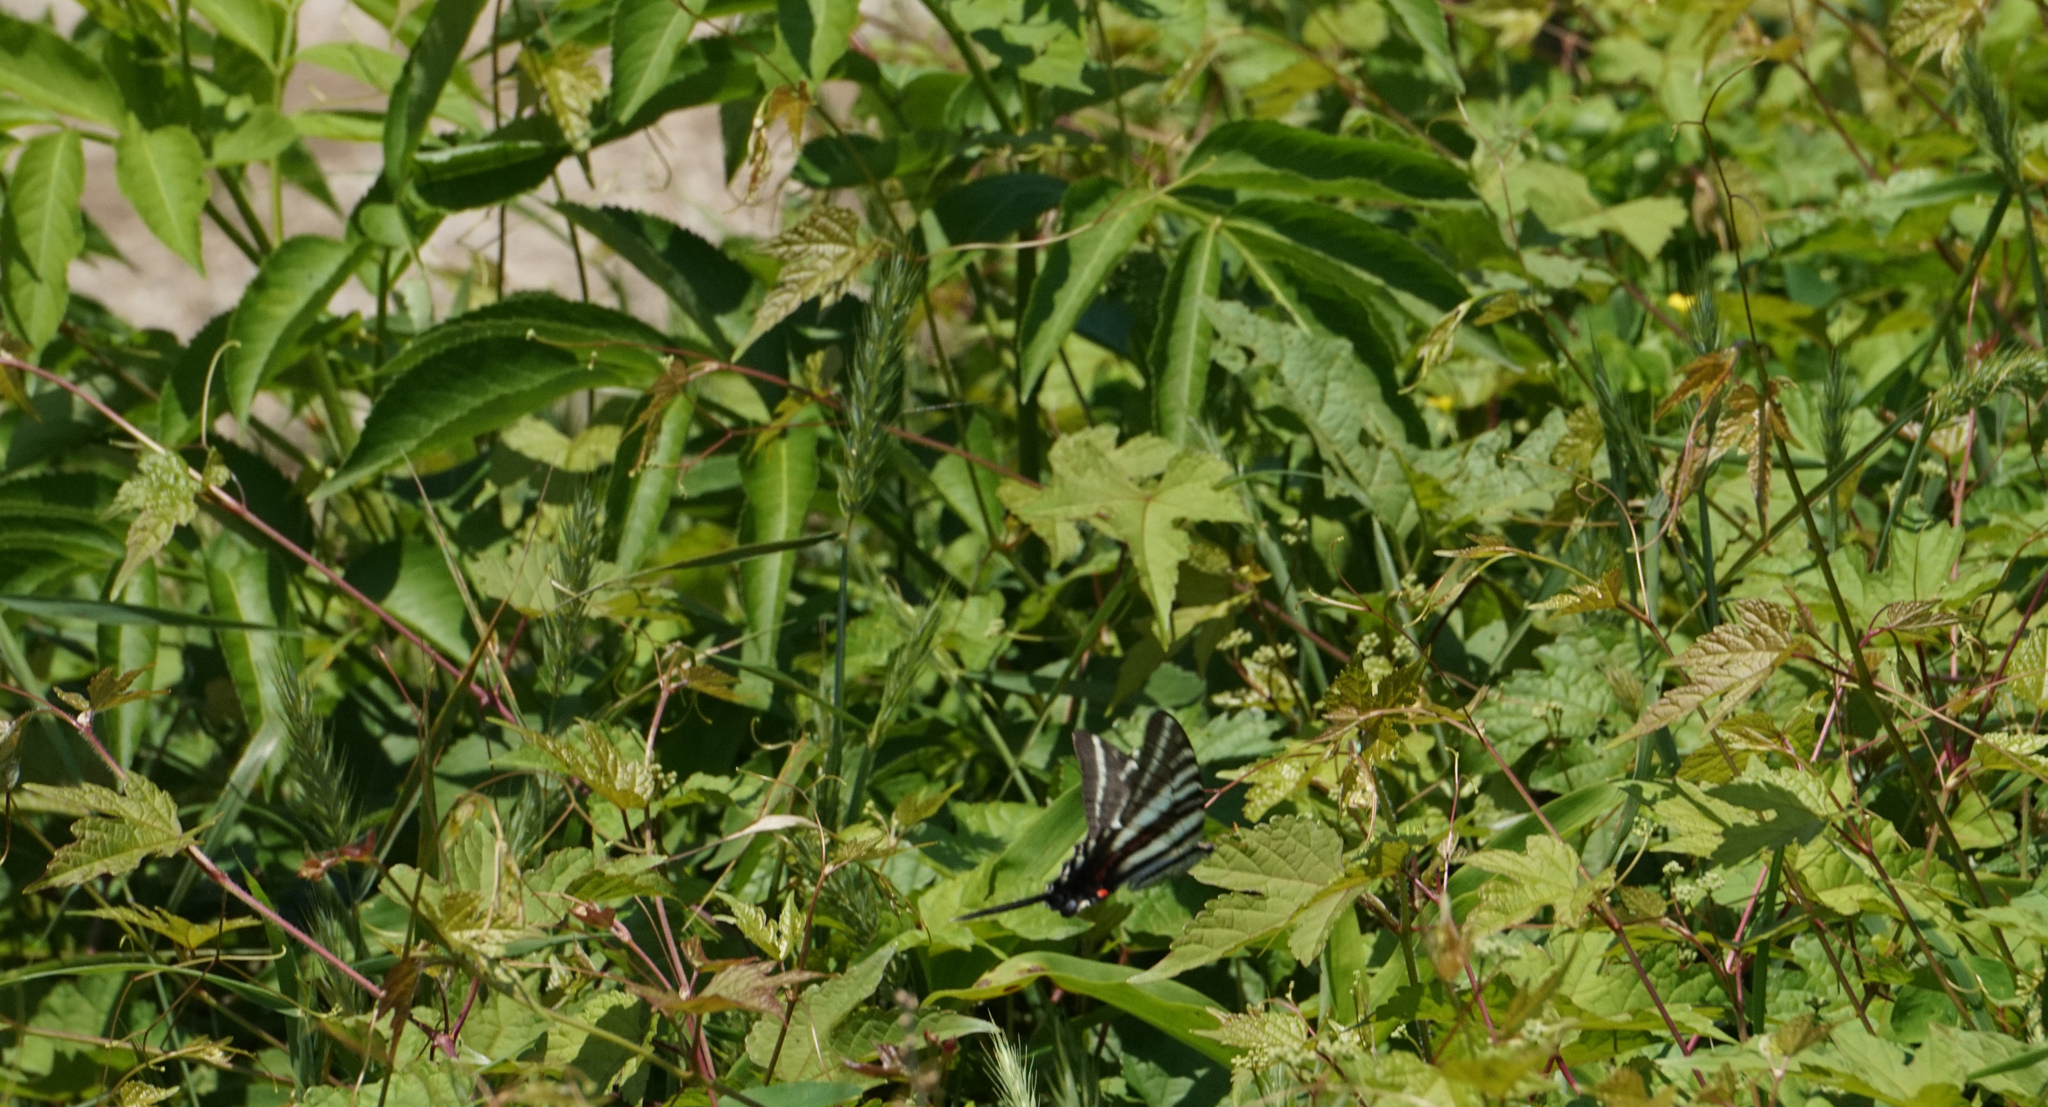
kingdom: Animalia
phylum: Arthropoda
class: Insecta
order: Lepidoptera
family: Papilionidae
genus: Protographium
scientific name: Protographium marcellus
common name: Zebra swallowtail
